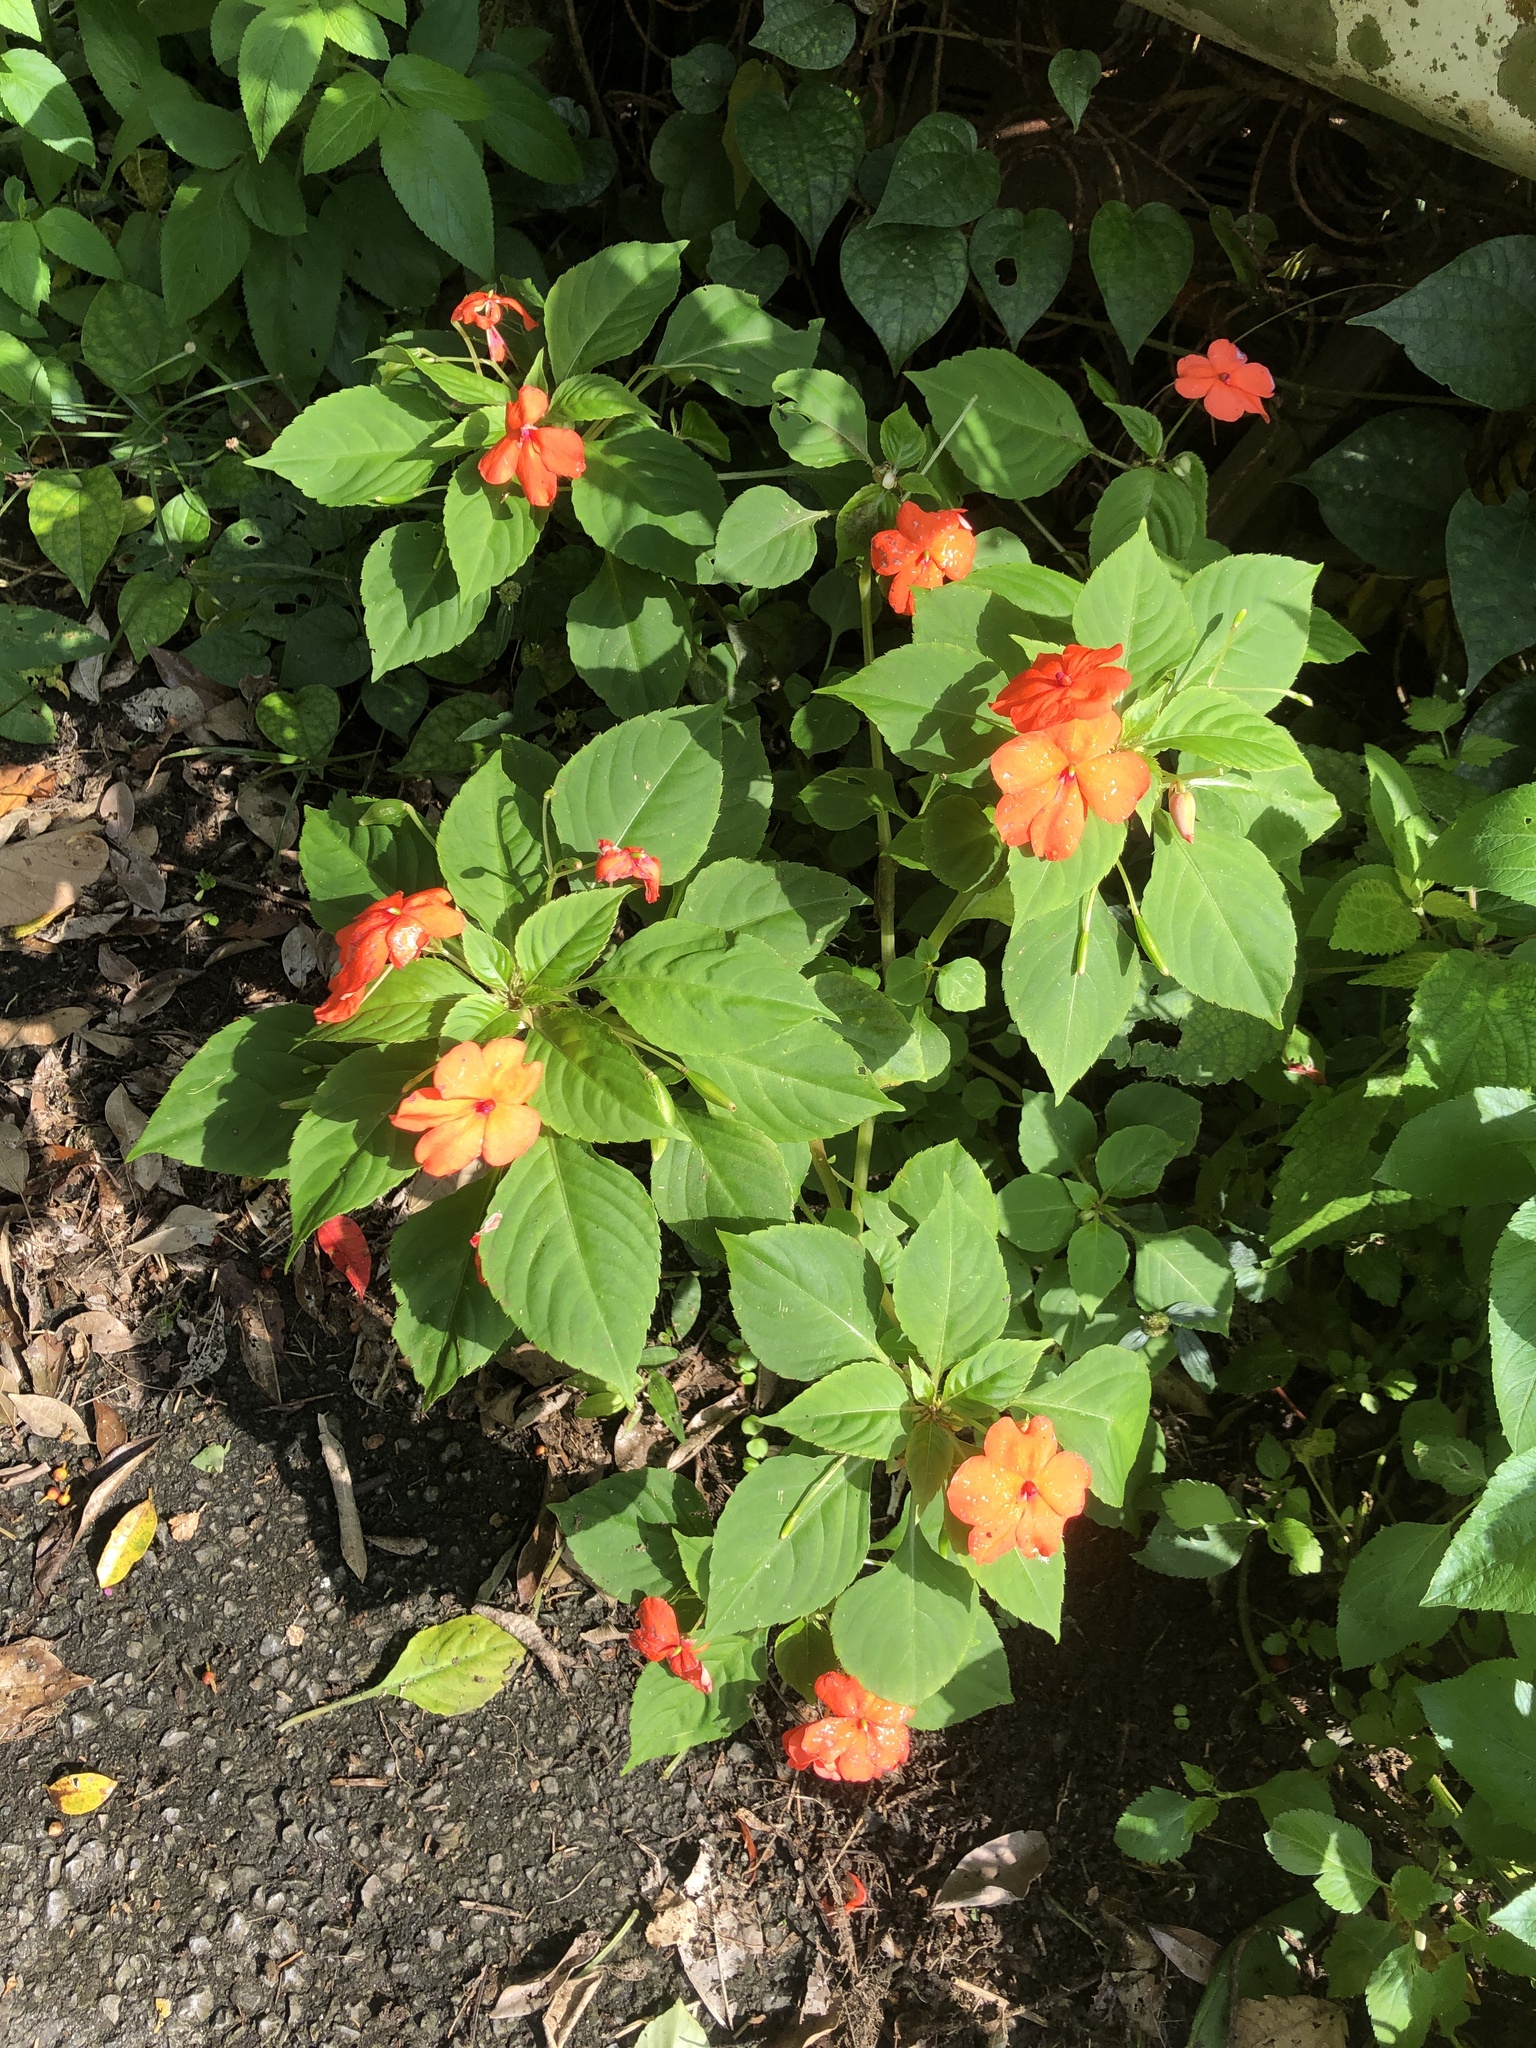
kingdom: Plantae
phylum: Tracheophyta
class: Magnoliopsida
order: Ericales
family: Balsaminaceae
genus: Impatiens
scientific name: Impatiens walleriana
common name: Buzzy lizzy
